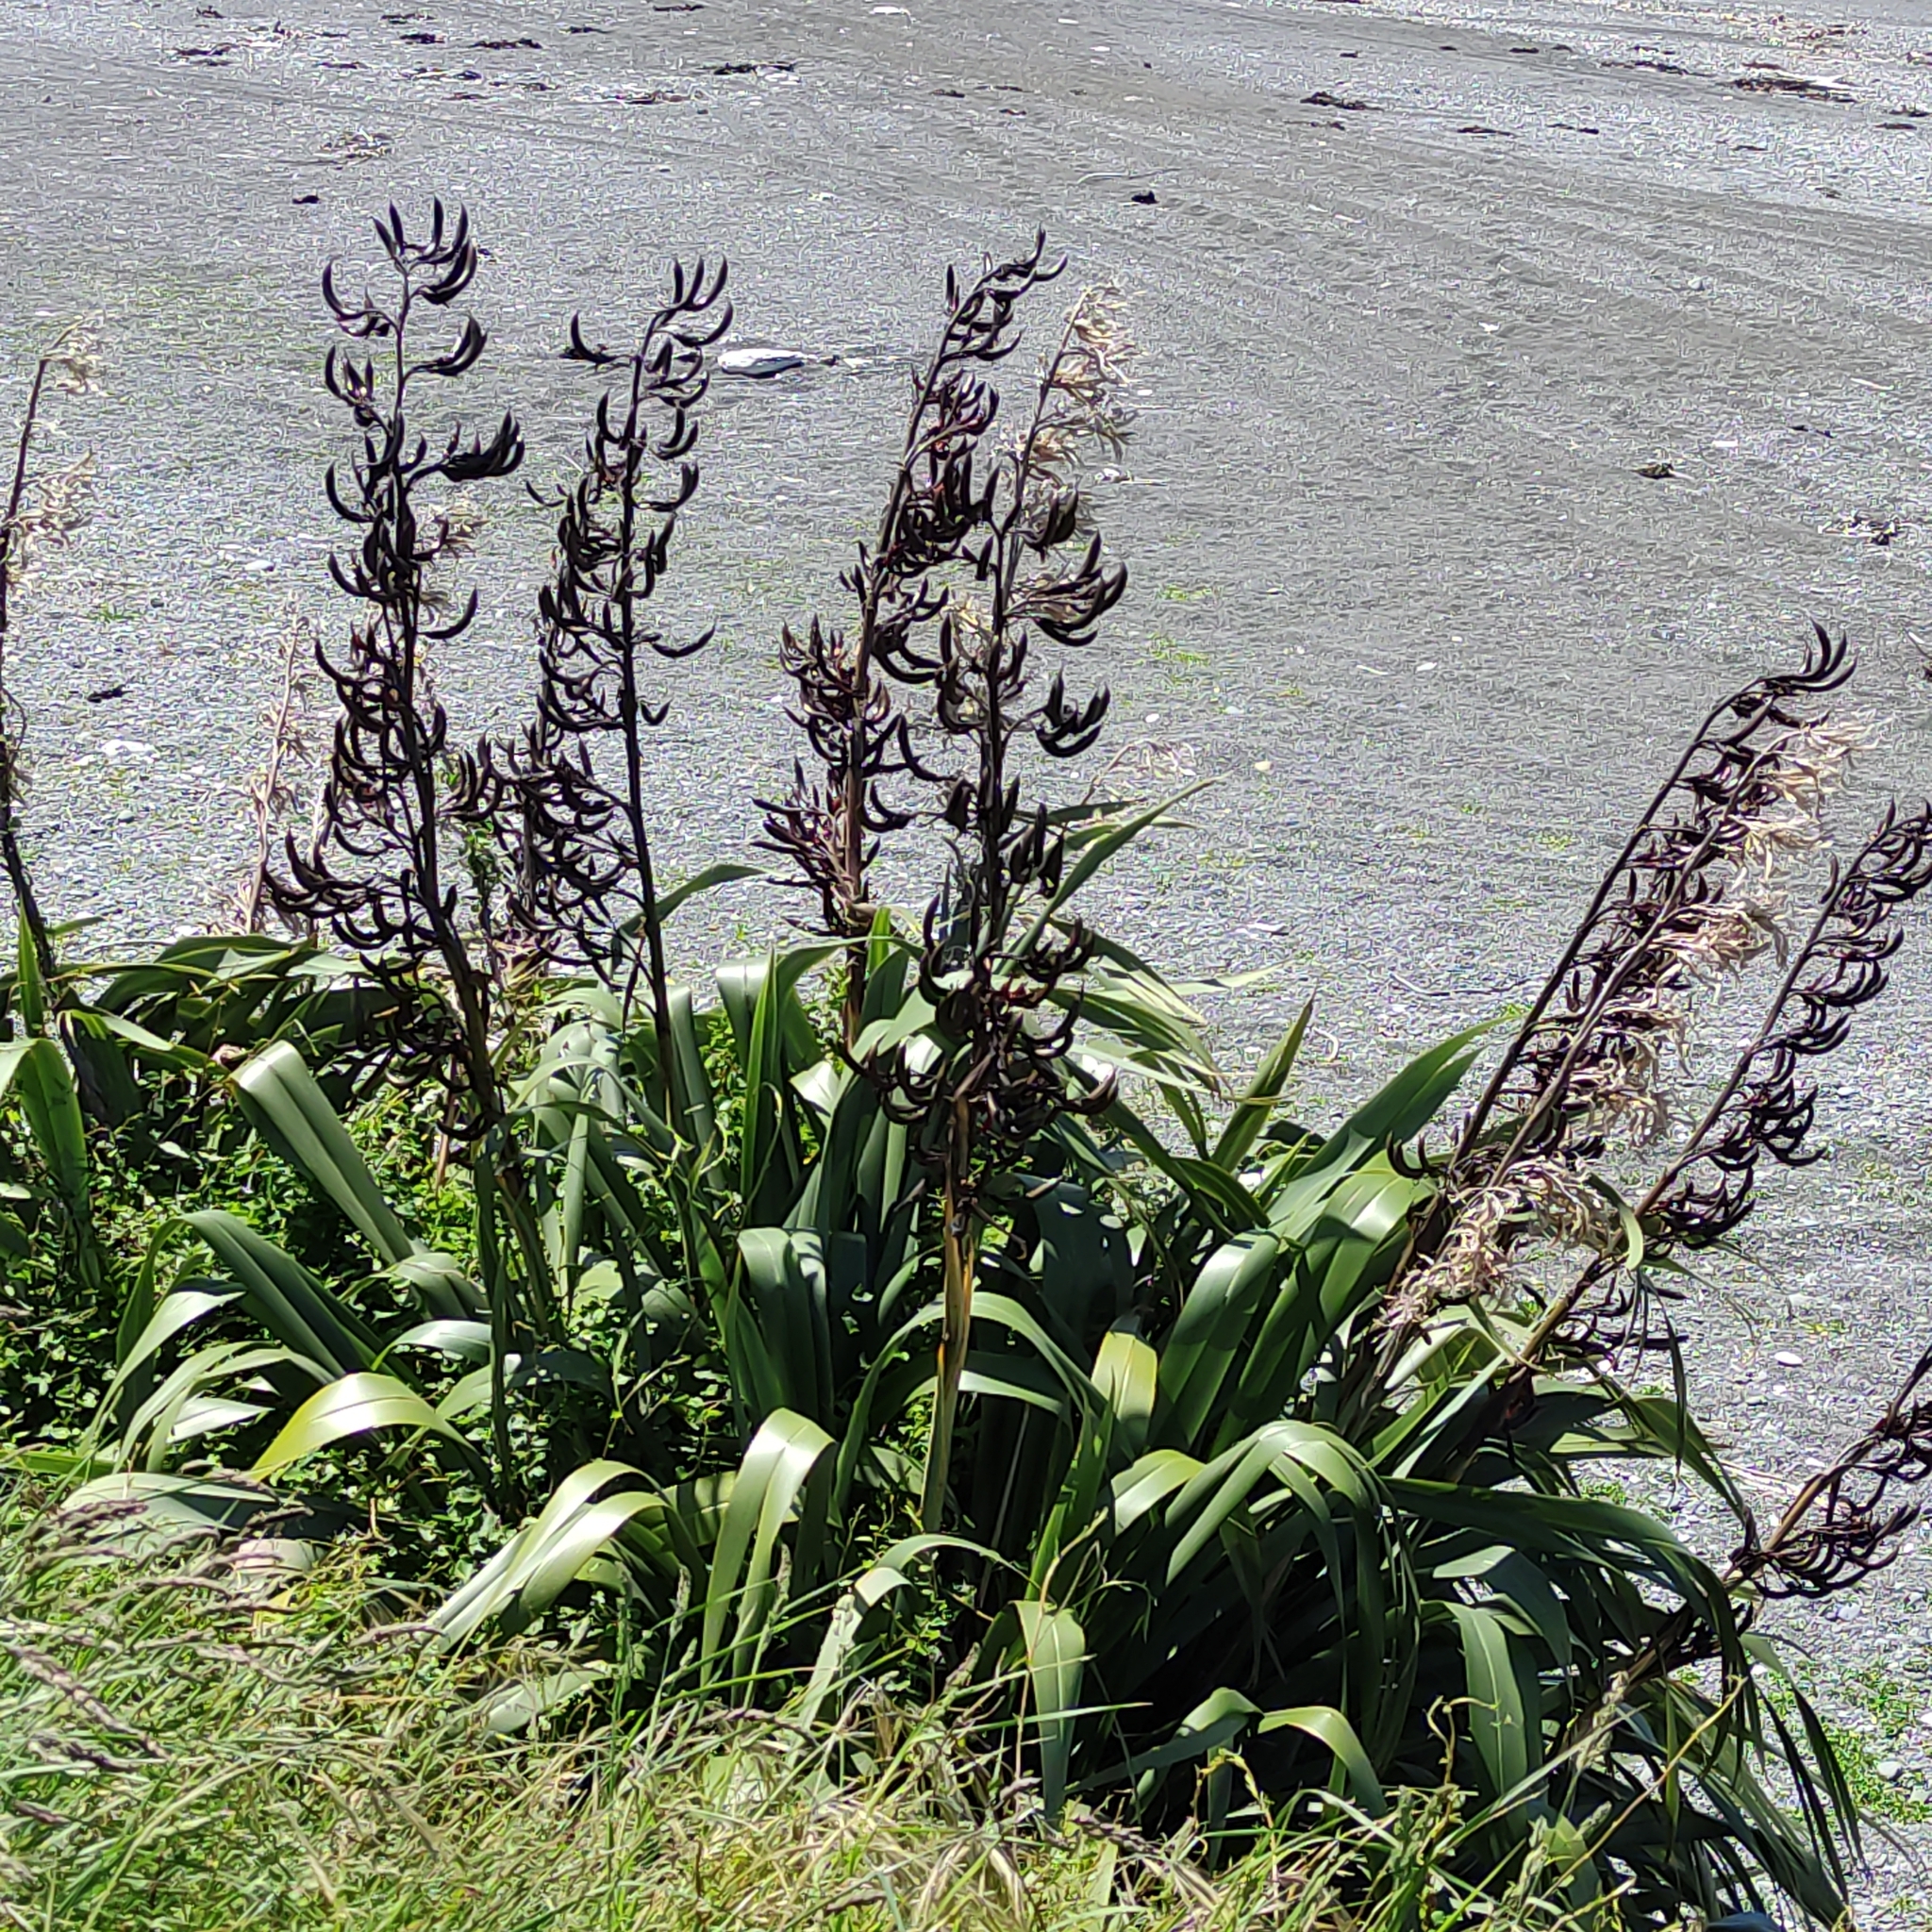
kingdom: Plantae
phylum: Tracheophyta
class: Liliopsida
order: Asparagales
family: Asphodelaceae
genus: Phormium
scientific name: Phormium tenax
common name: New zealand flax
